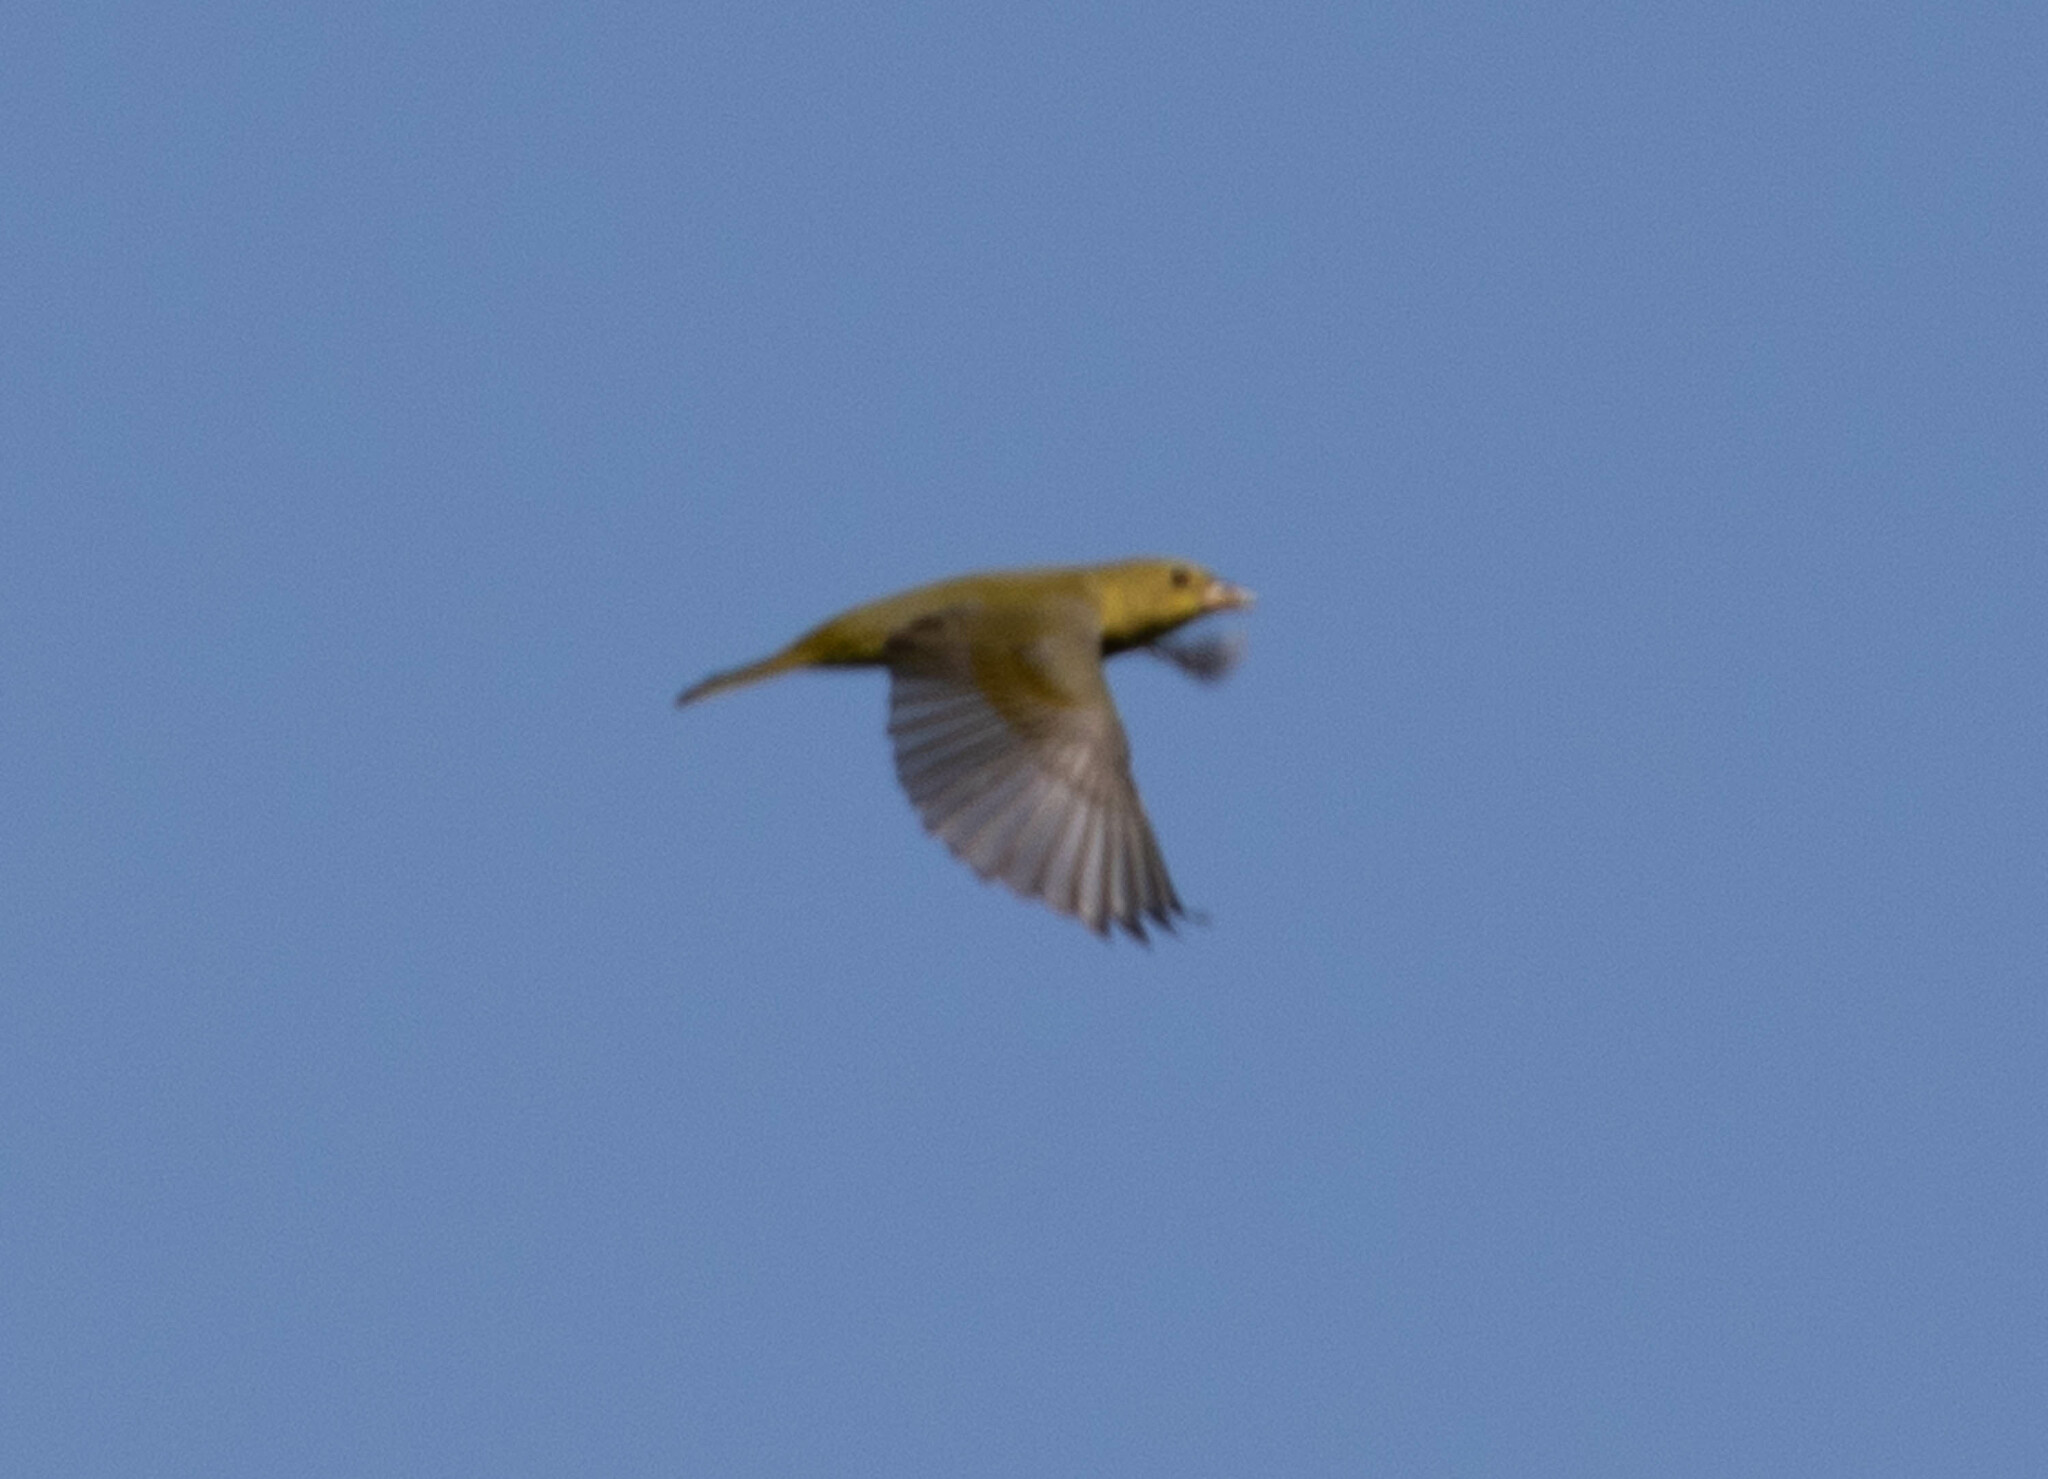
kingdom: Animalia
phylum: Chordata
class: Aves
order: Passeriformes
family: Cardinalidae
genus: Piranga
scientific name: Piranga olivacea
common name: Scarlet tanager
